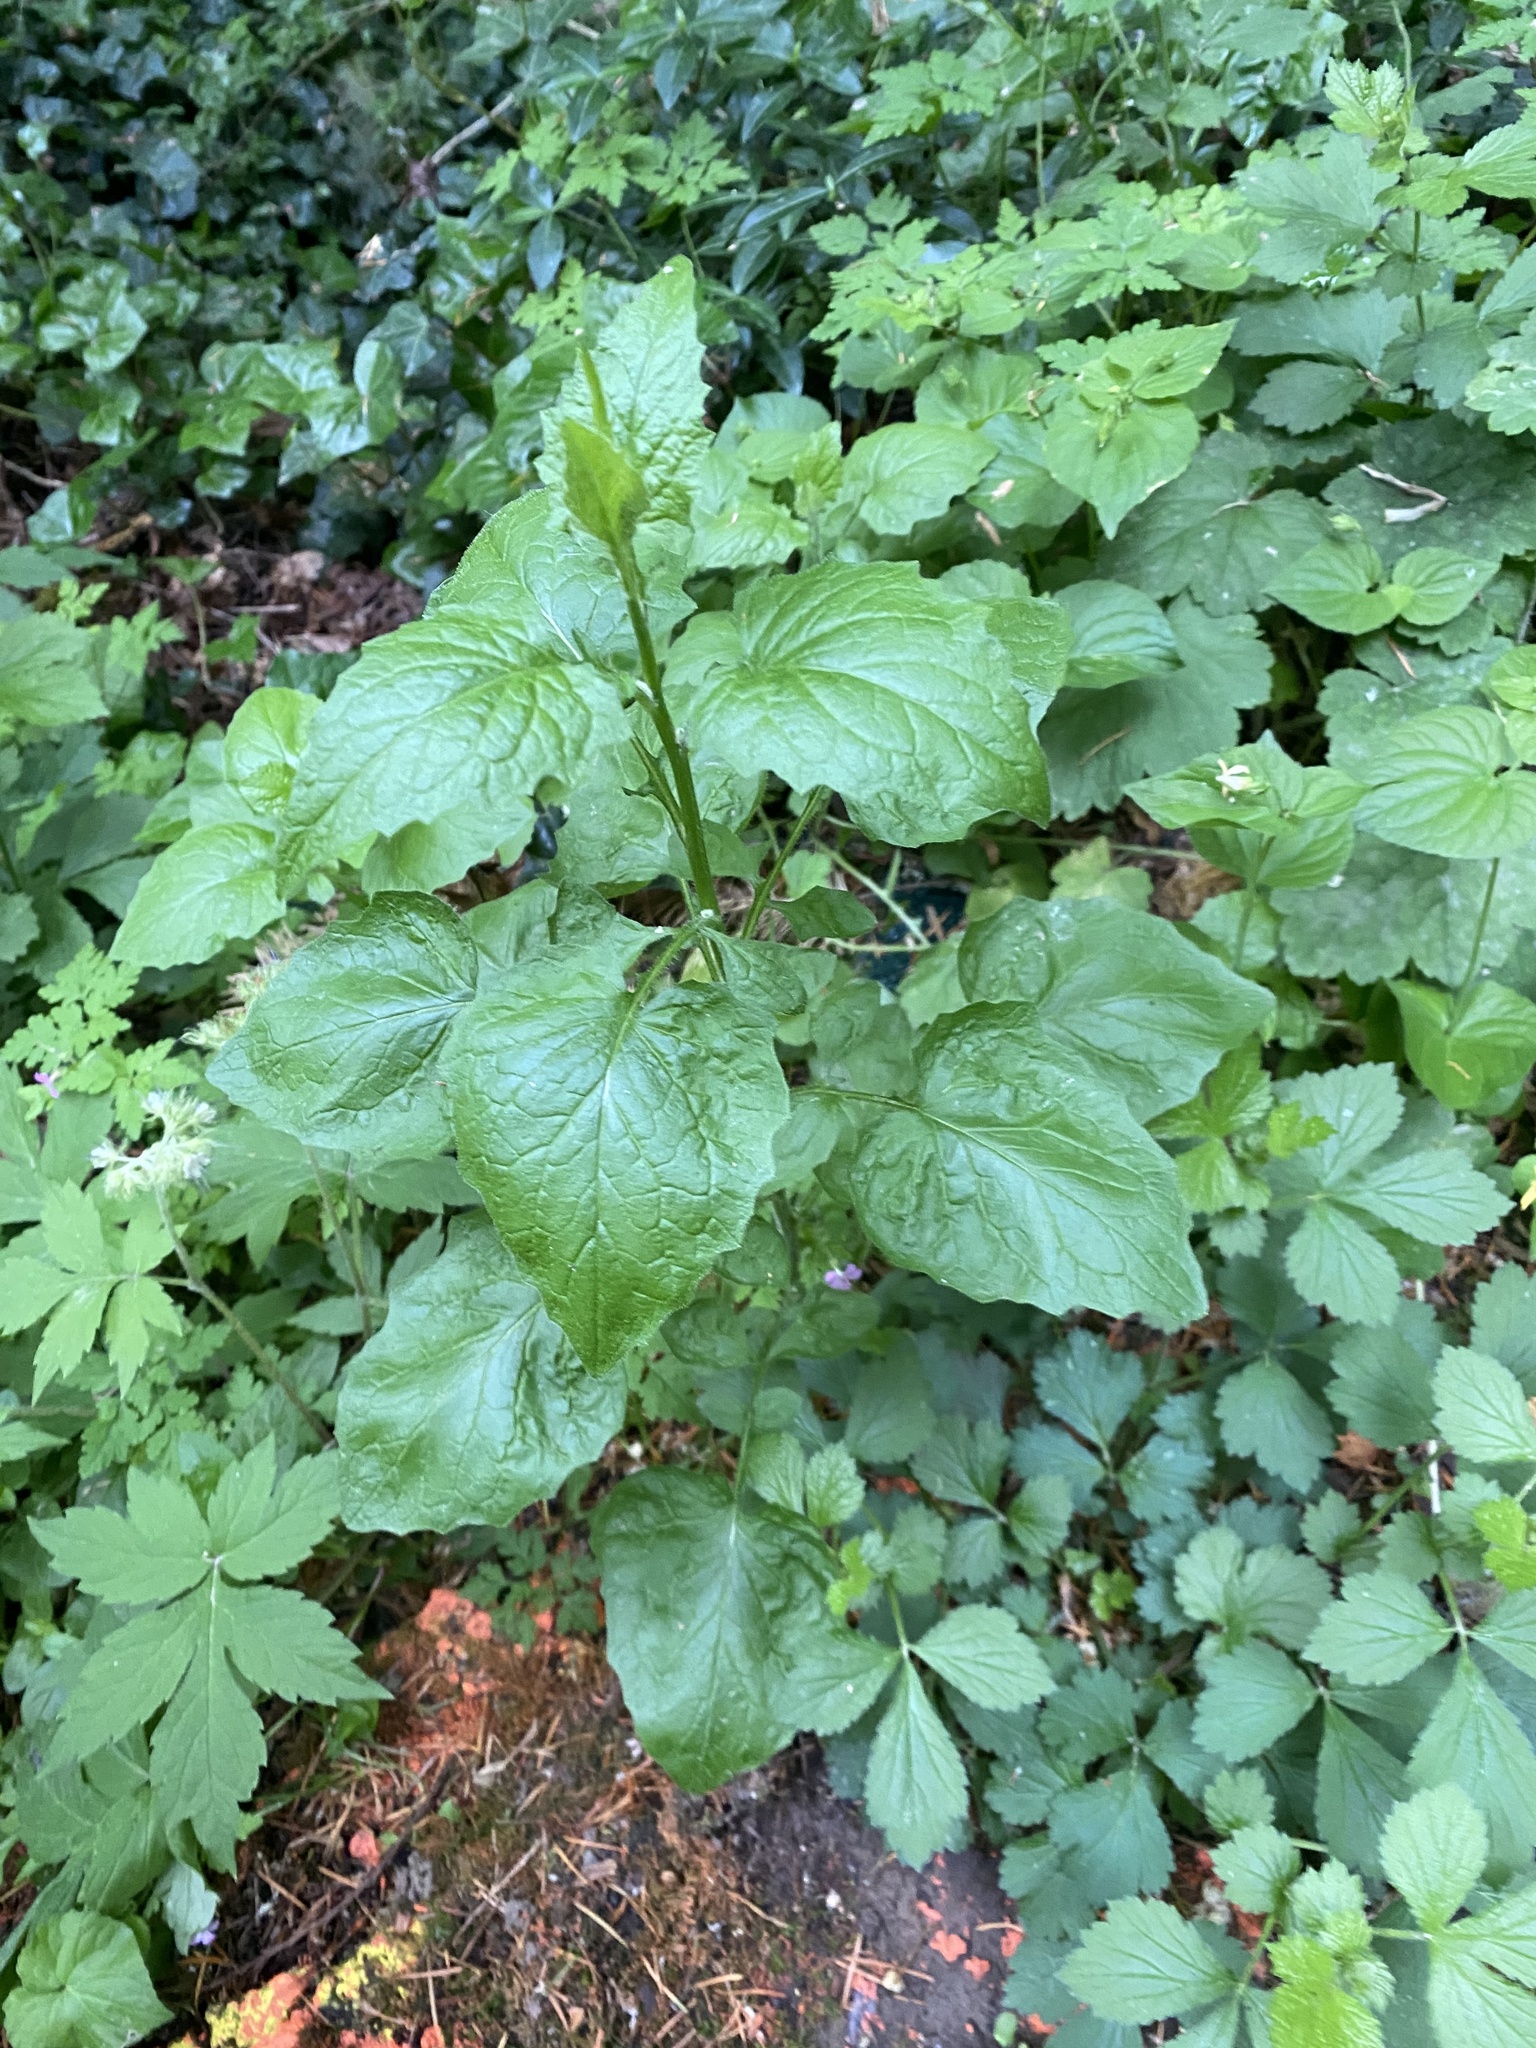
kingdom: Plantae
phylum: Tracheophyta
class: Magnoliopsida
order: Asterales
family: Asteraceae
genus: Lapsana
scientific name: Lapsana communis
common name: Nipplewort
